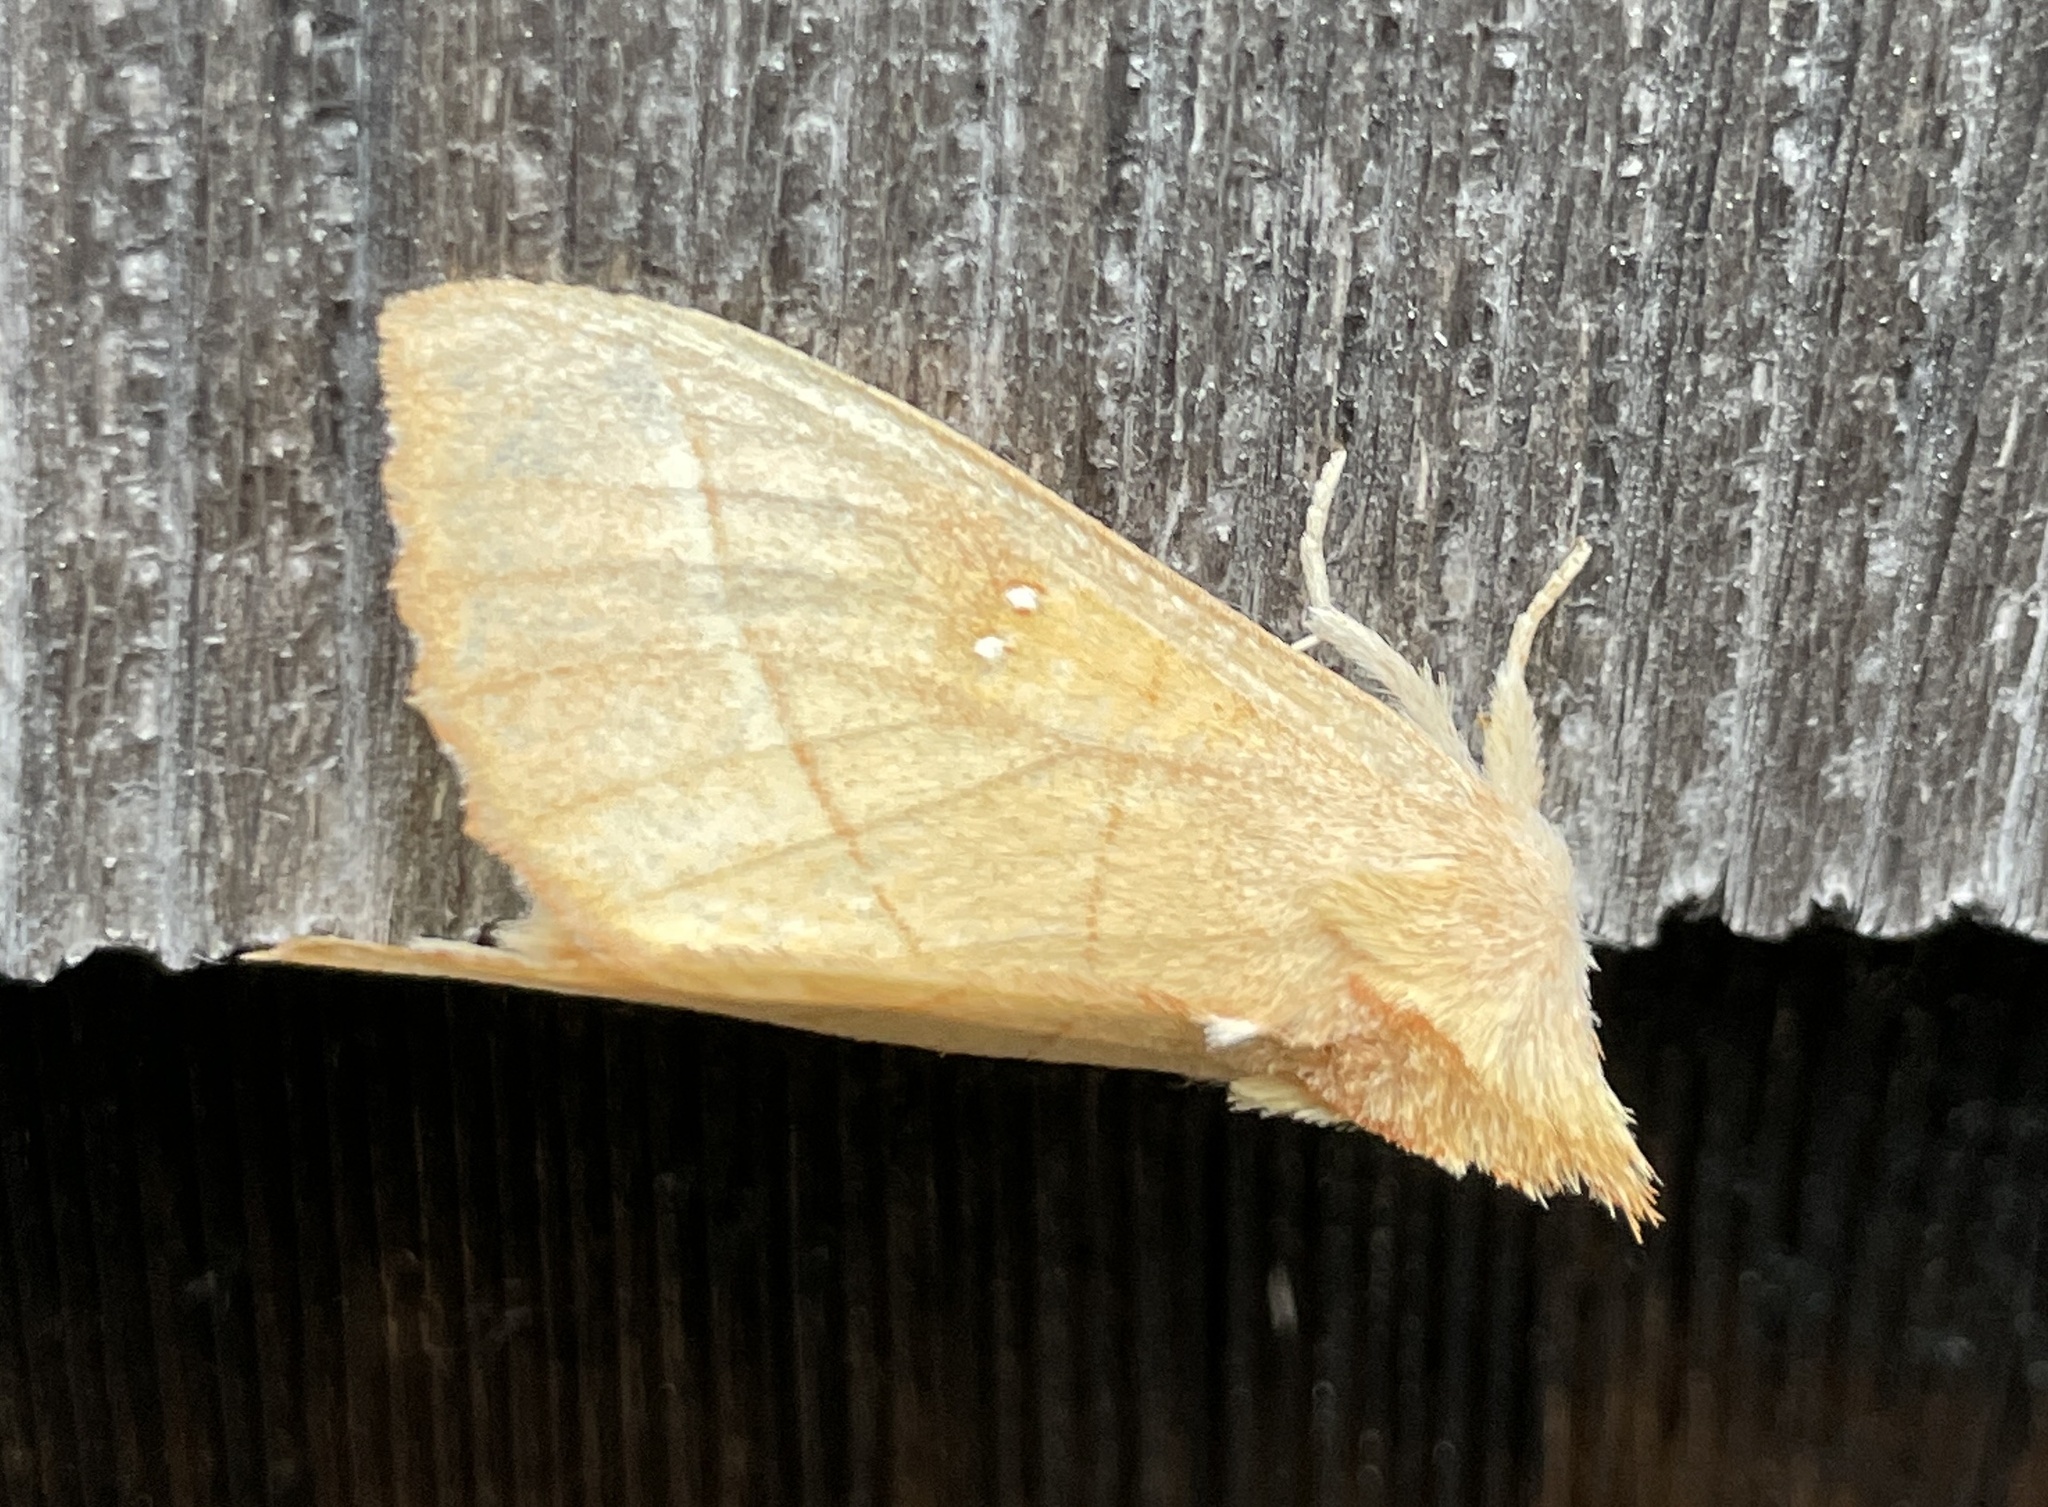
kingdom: Animalia
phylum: Arthropoda
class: Insecta
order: Lepidoptera
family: Notodontidae
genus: Nadata
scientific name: Nadata gibbosa
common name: White-dotted prominent
